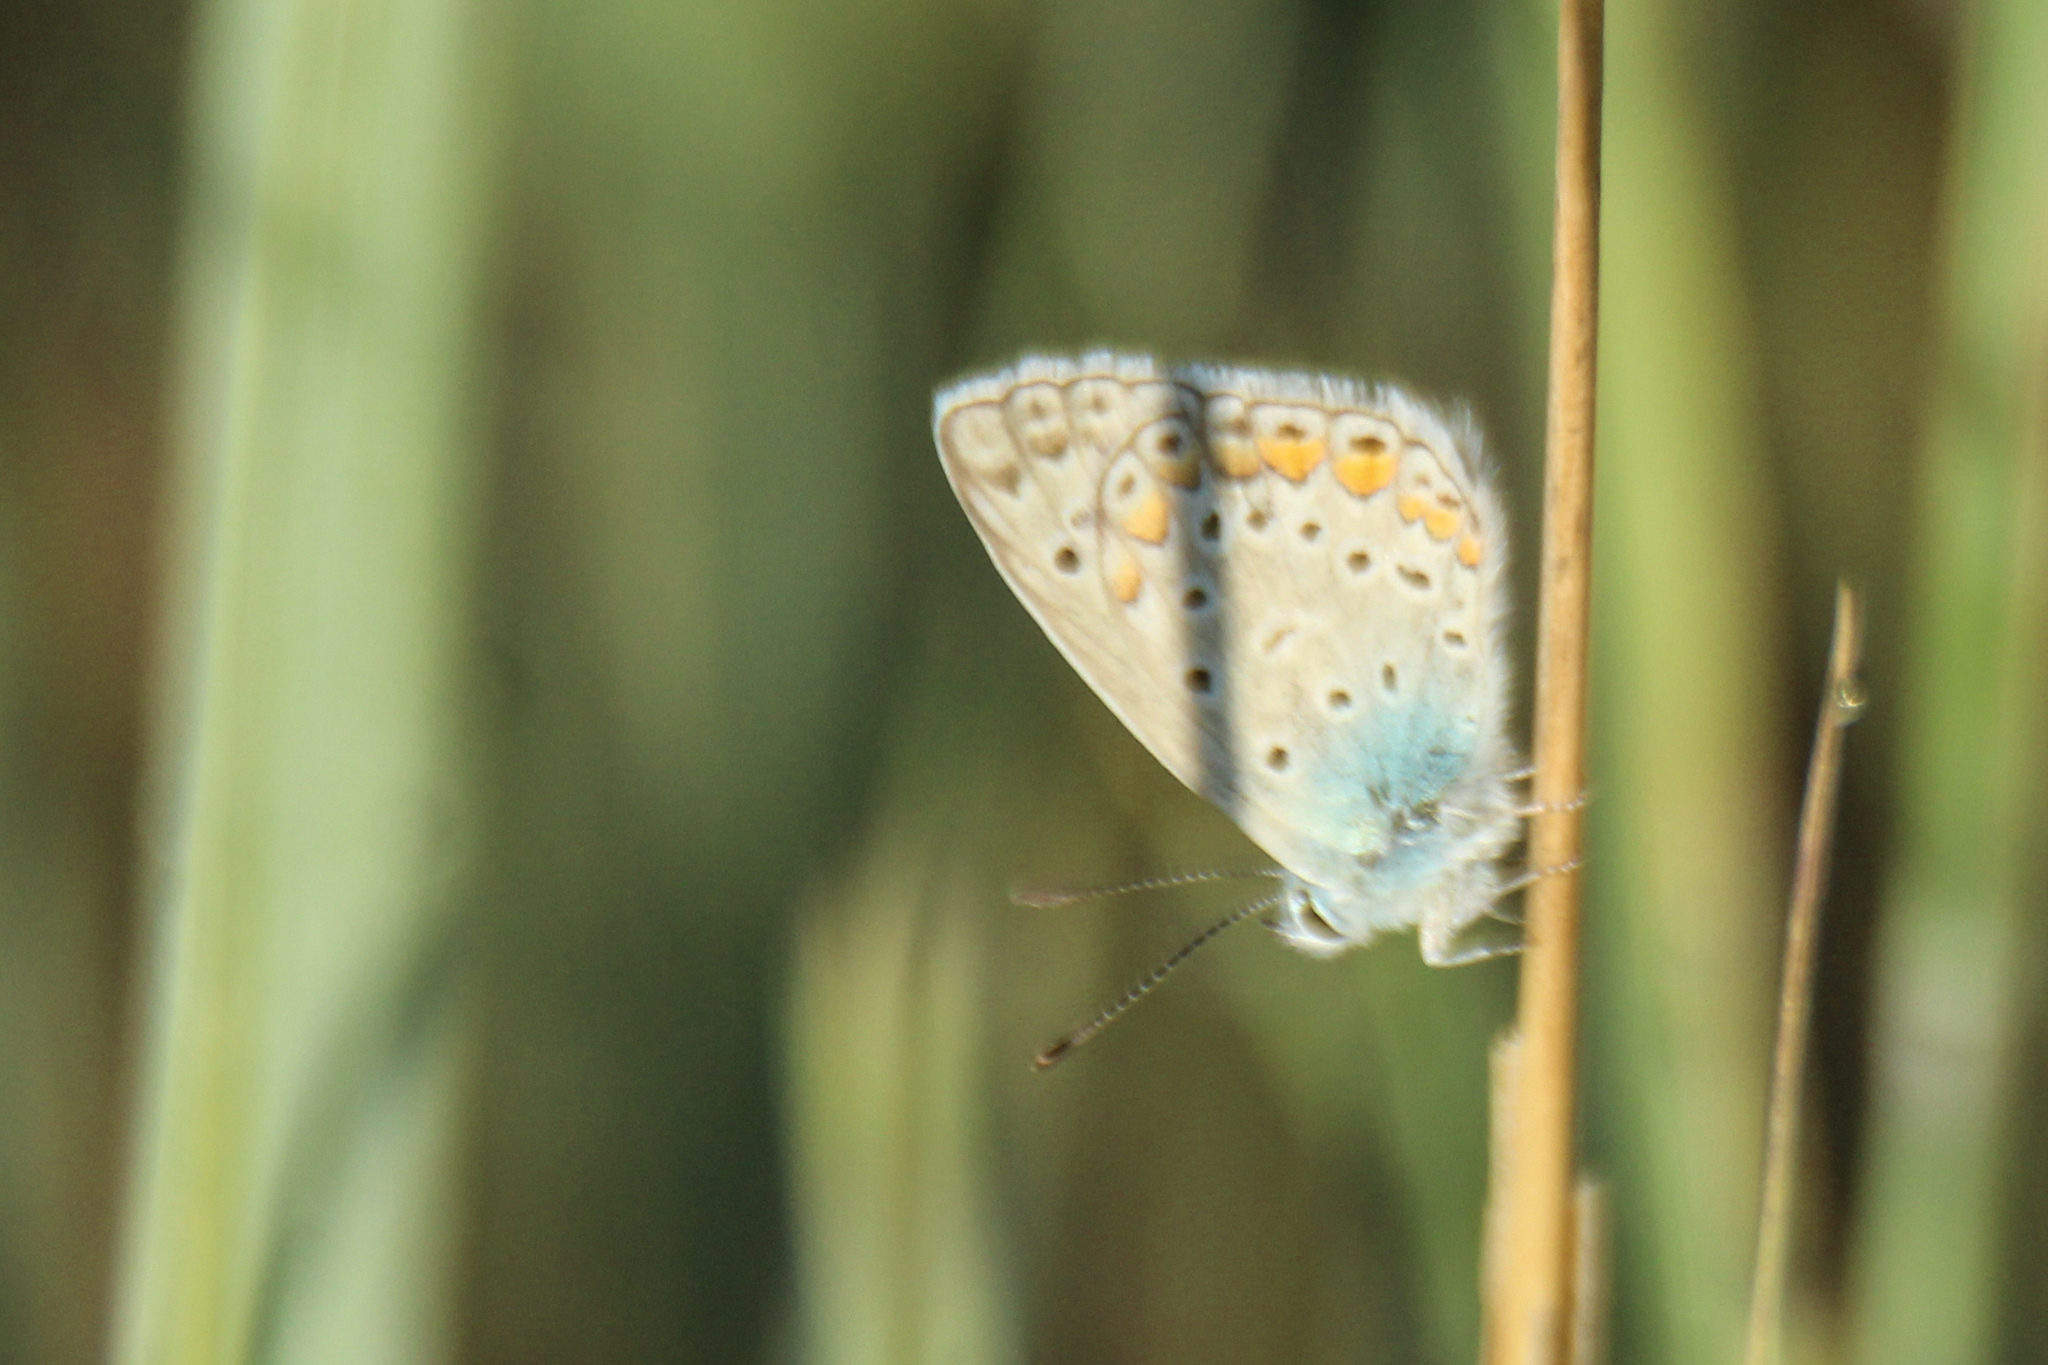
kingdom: Animalia
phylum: Arthropoda
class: Insecta
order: Lepidoptera
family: Lycaenidae
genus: Polyommatus
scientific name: Polyommatus icarus
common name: Common blue
